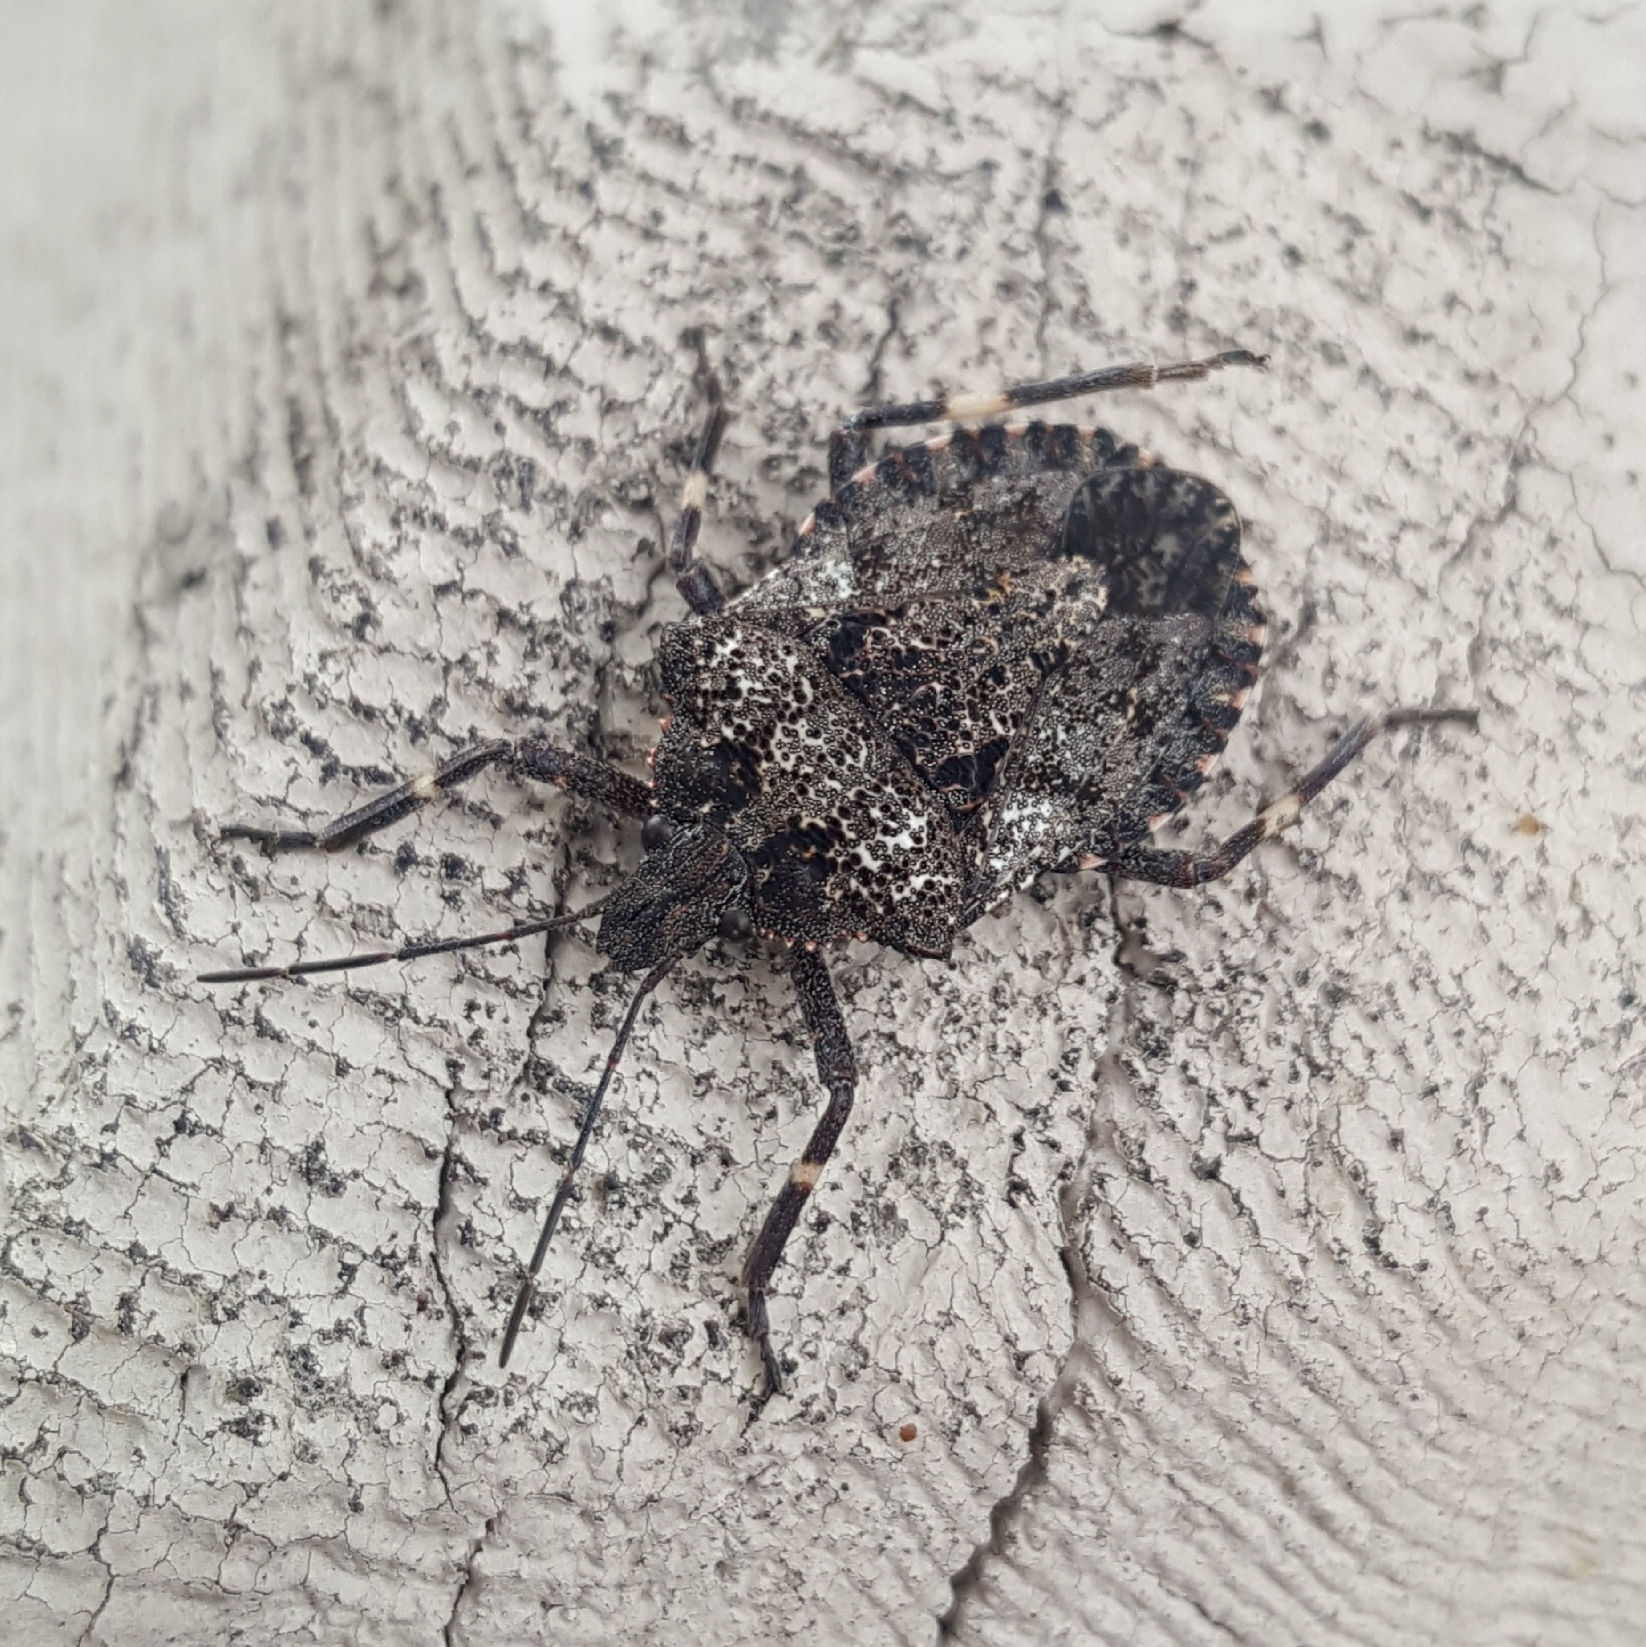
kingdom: Animalia
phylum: Arthropoda
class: Insecta
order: Hemiptera
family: Pentatomidae
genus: Brochymena
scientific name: Brochymena affinis
